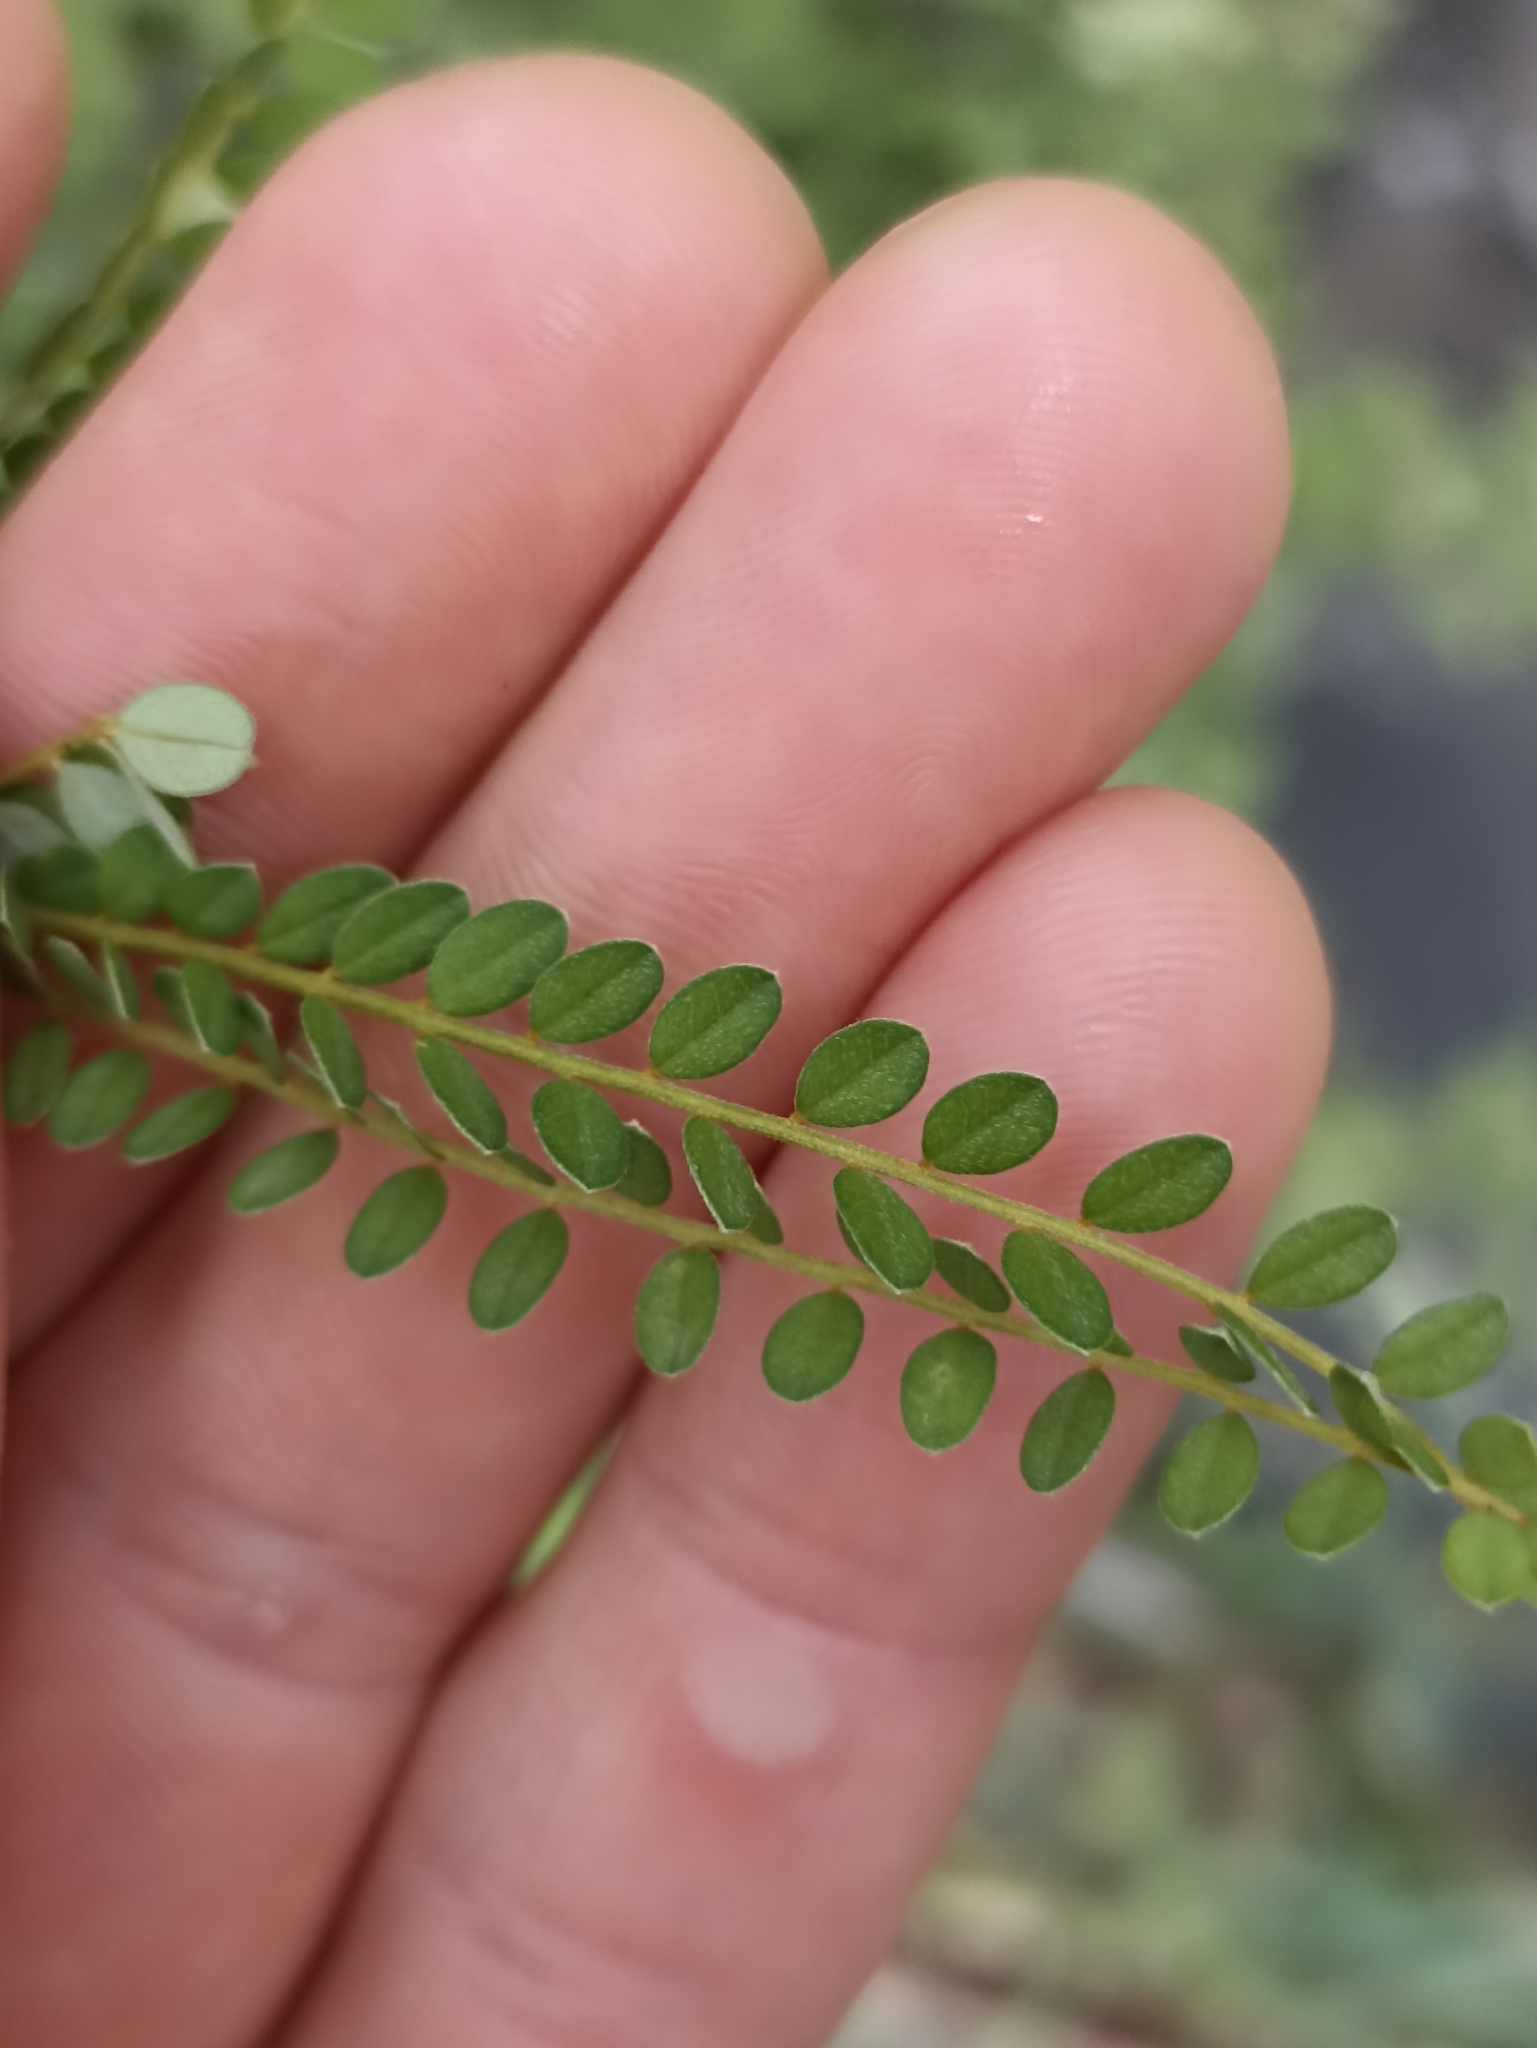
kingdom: Plantae
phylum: Tracheophyta
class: Magnoliopsida
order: Fabales
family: Fabaceae
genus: Sophora
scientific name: Sophora microphylla
